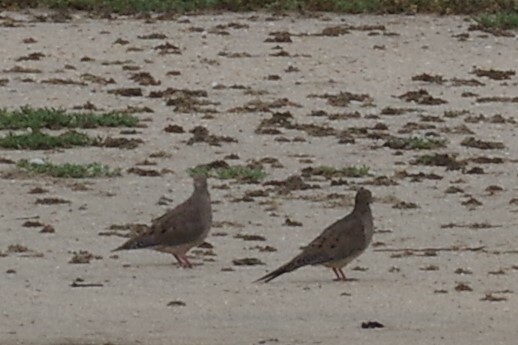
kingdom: Animalia
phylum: Chordata
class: Aves
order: Columbiformes
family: Columbidae
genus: Zenaida
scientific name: Zenaida macroura
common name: Mourning dove
